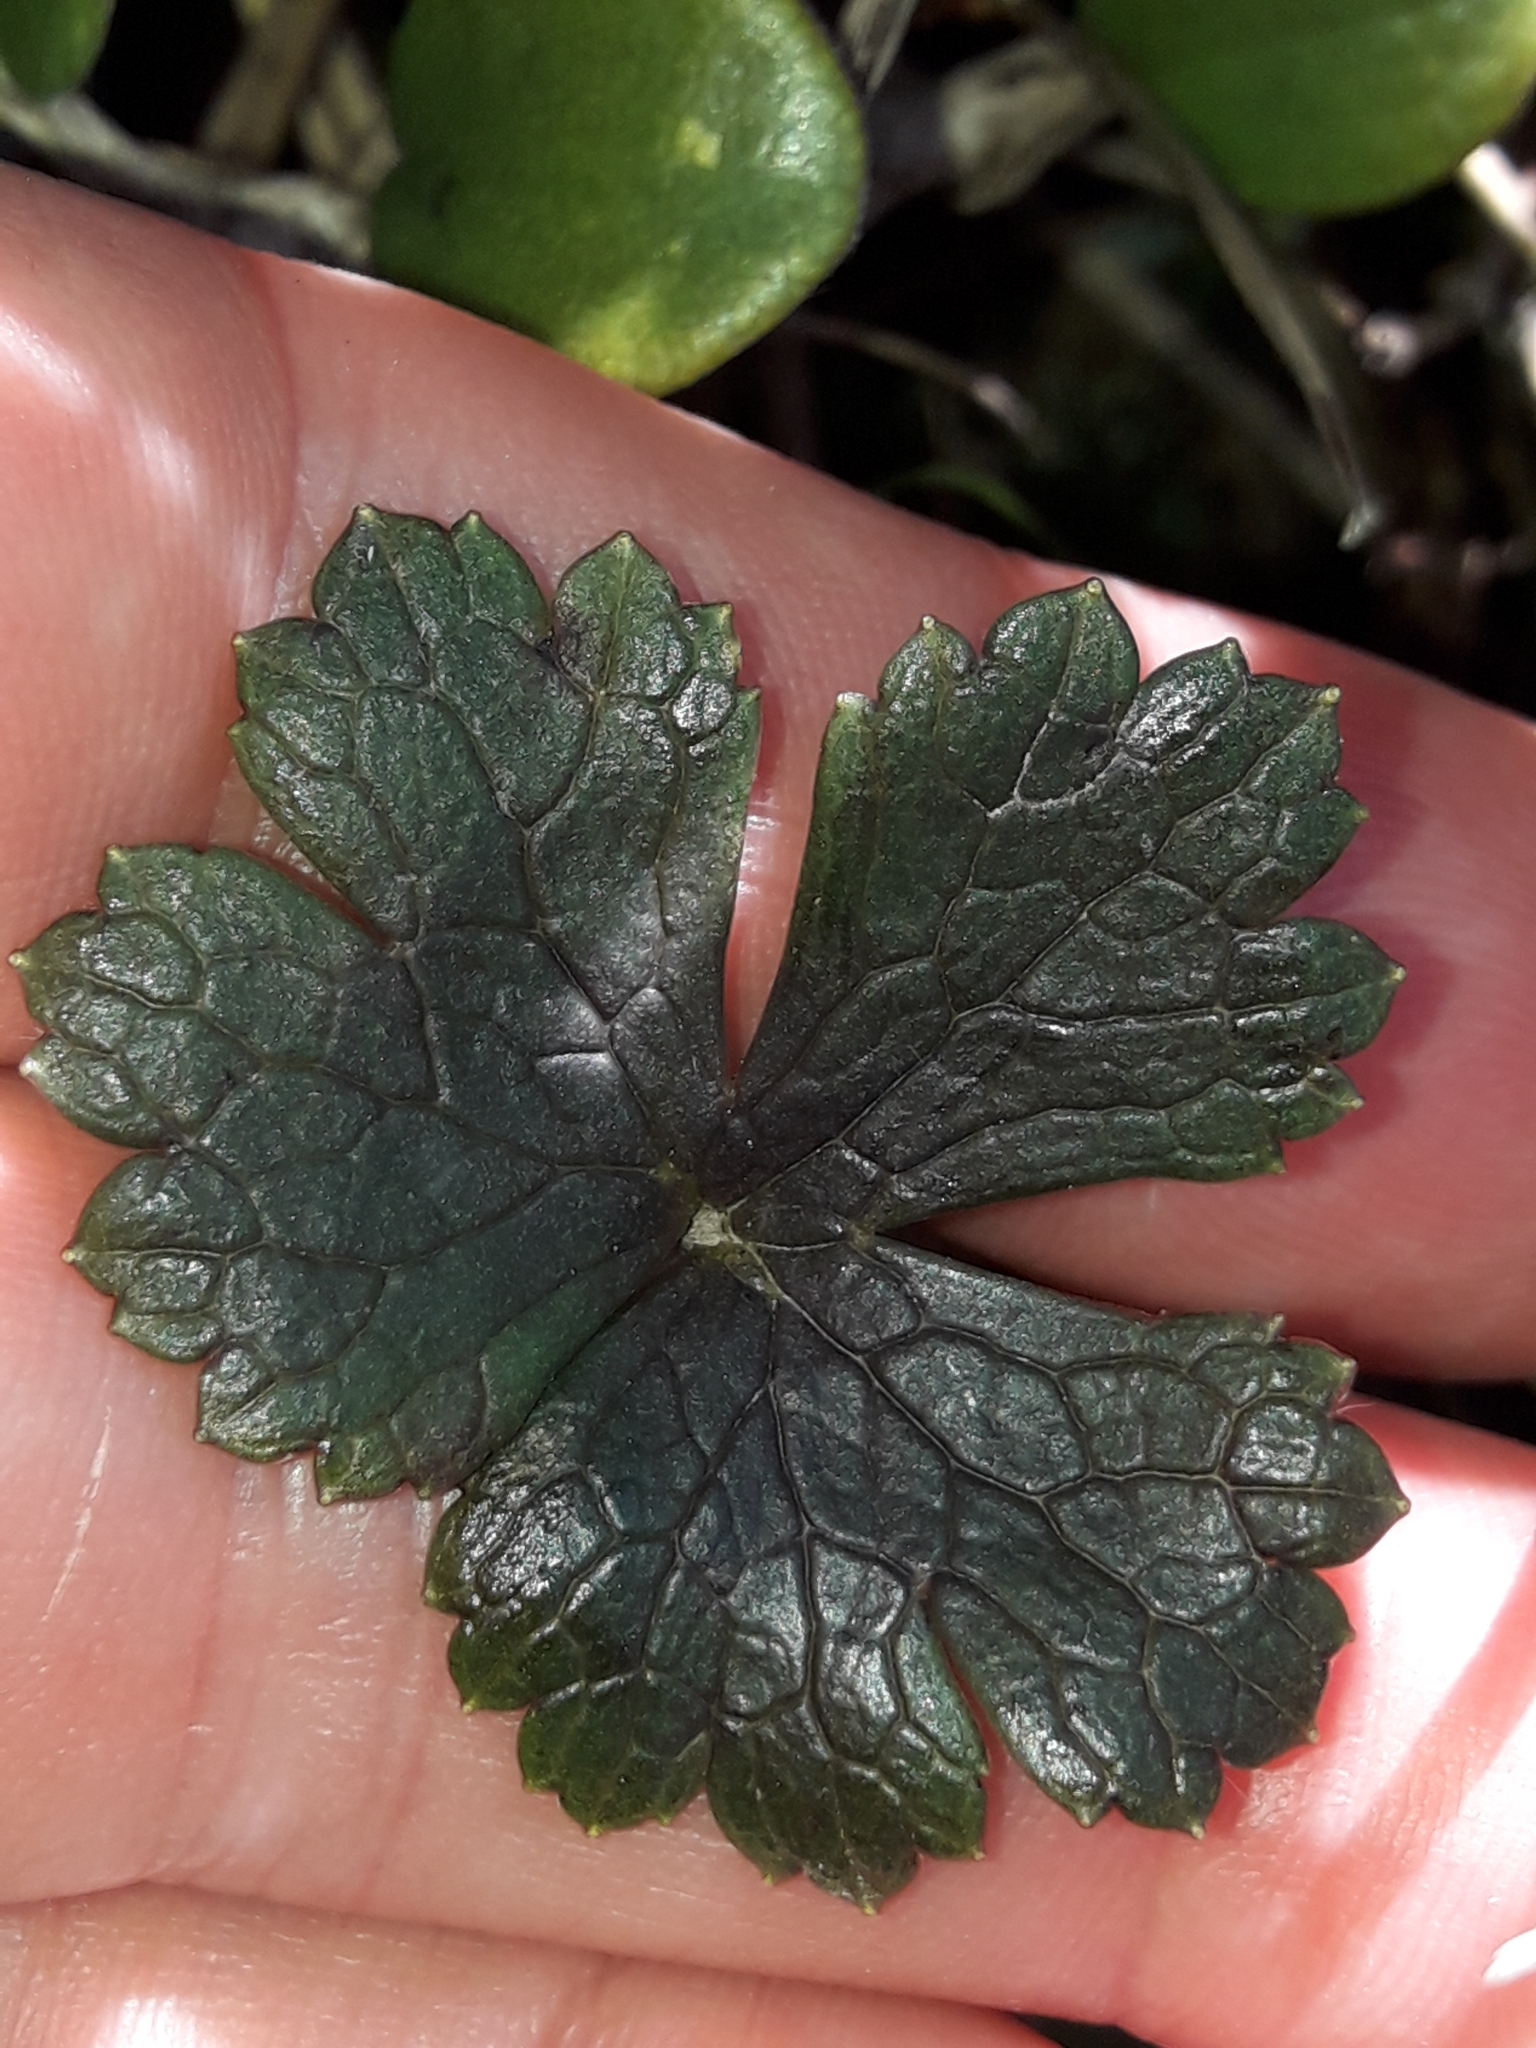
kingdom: Plantae
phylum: Tracheophyta
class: Magnoliopsida
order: Ranunculales
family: Ranunculaceae
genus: Ranunculus
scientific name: Ranunculus verticillatus
